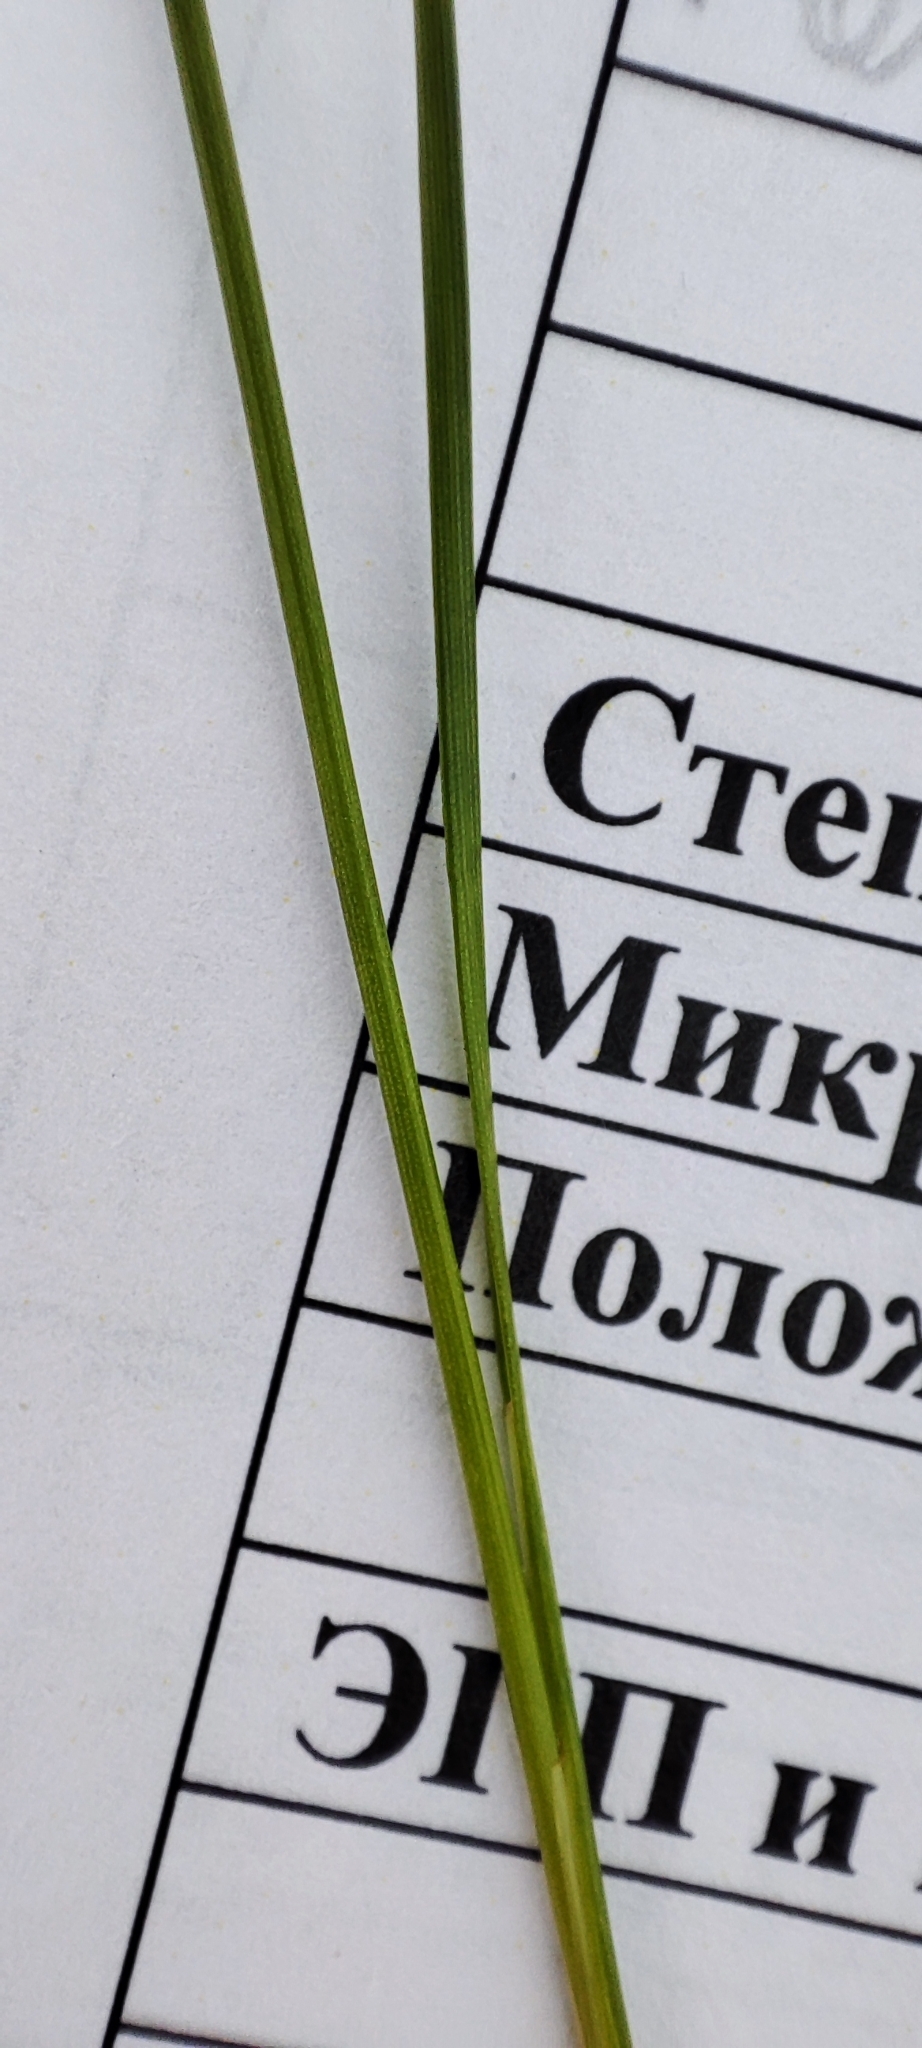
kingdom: Plantae
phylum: Tracheophyta
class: Liliopsida
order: Poales
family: Juncaceae
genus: Juncus
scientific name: Juncus gerardi
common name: Saltmarsh rush
